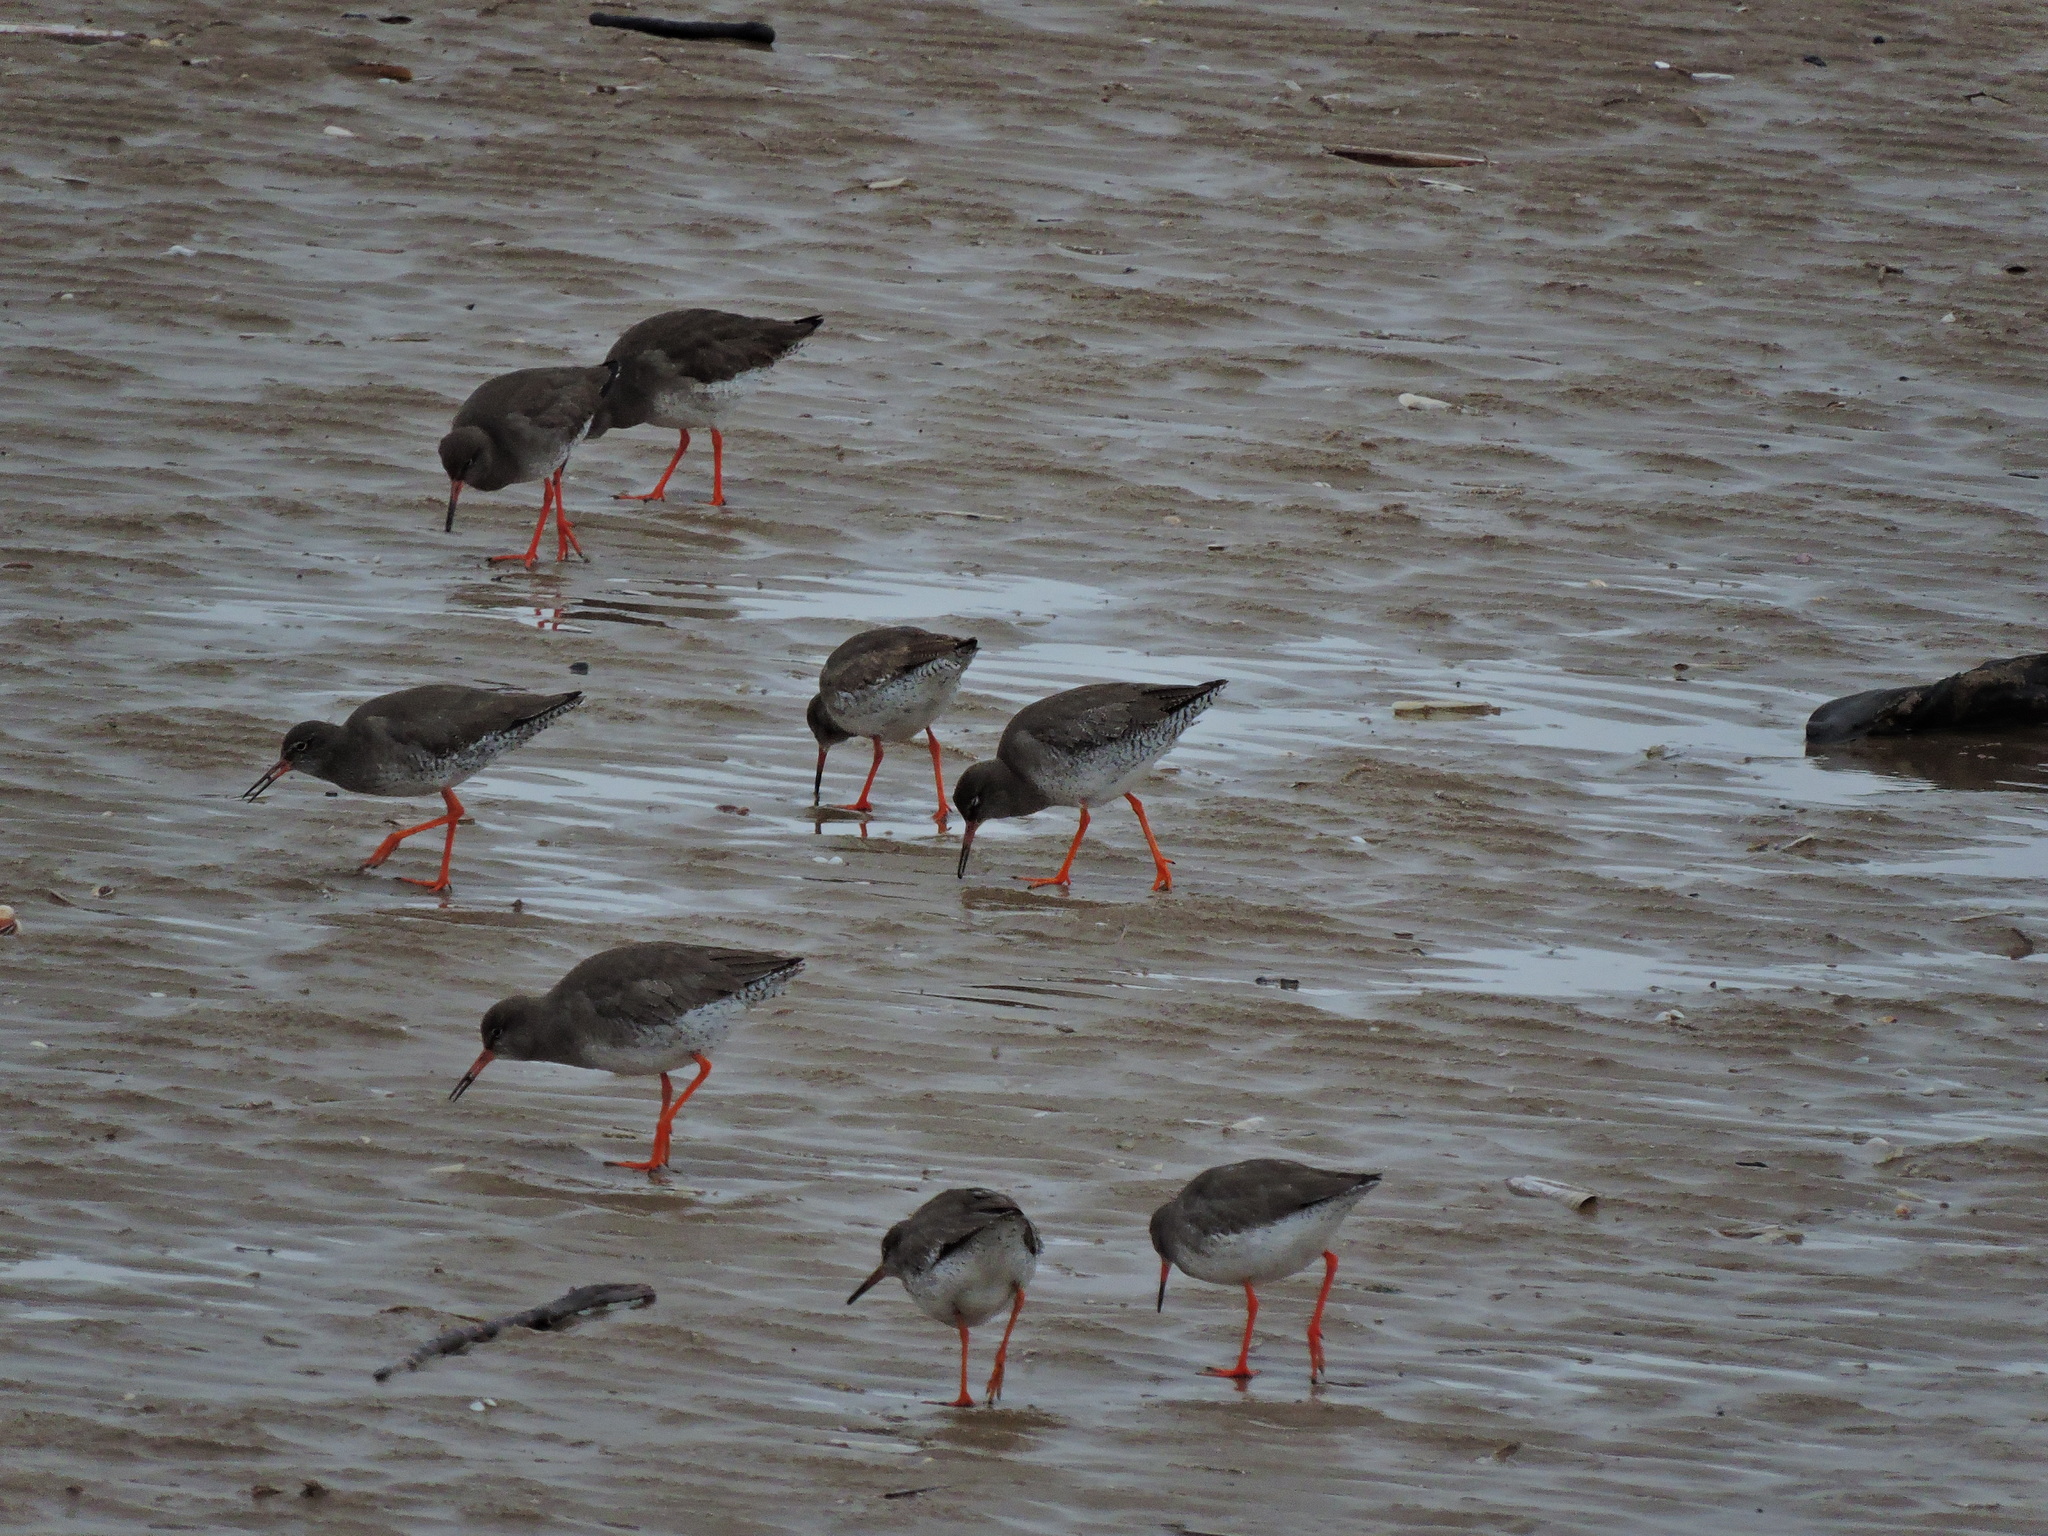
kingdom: Animalia
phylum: Chordata
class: Aves
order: Charadriiformes
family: Scolopacidae
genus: Tringa
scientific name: Tringa totanus
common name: Common redshank
